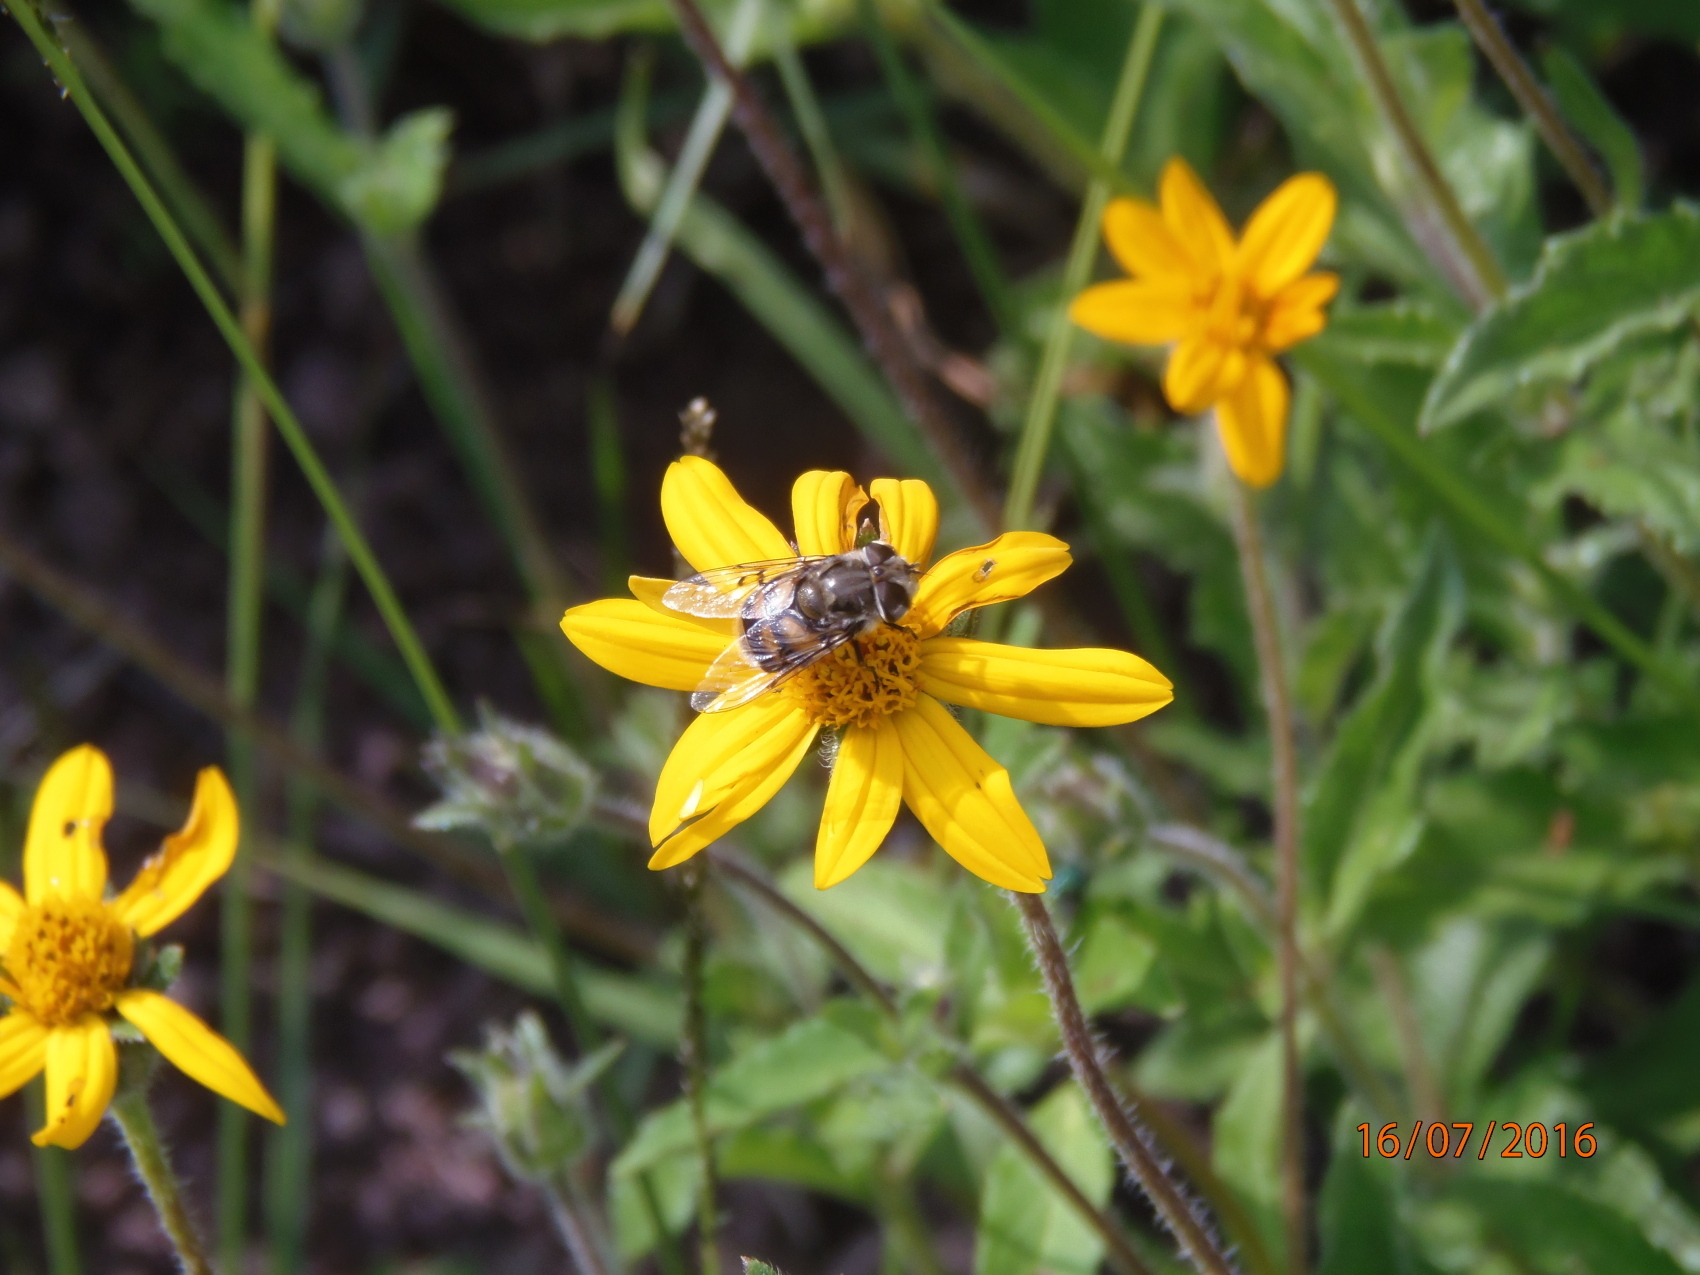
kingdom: Animalia
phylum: Arthropoda
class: Insecta
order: Diptera
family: Syrphidae
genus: Copestylum
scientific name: Copestylum avidum
